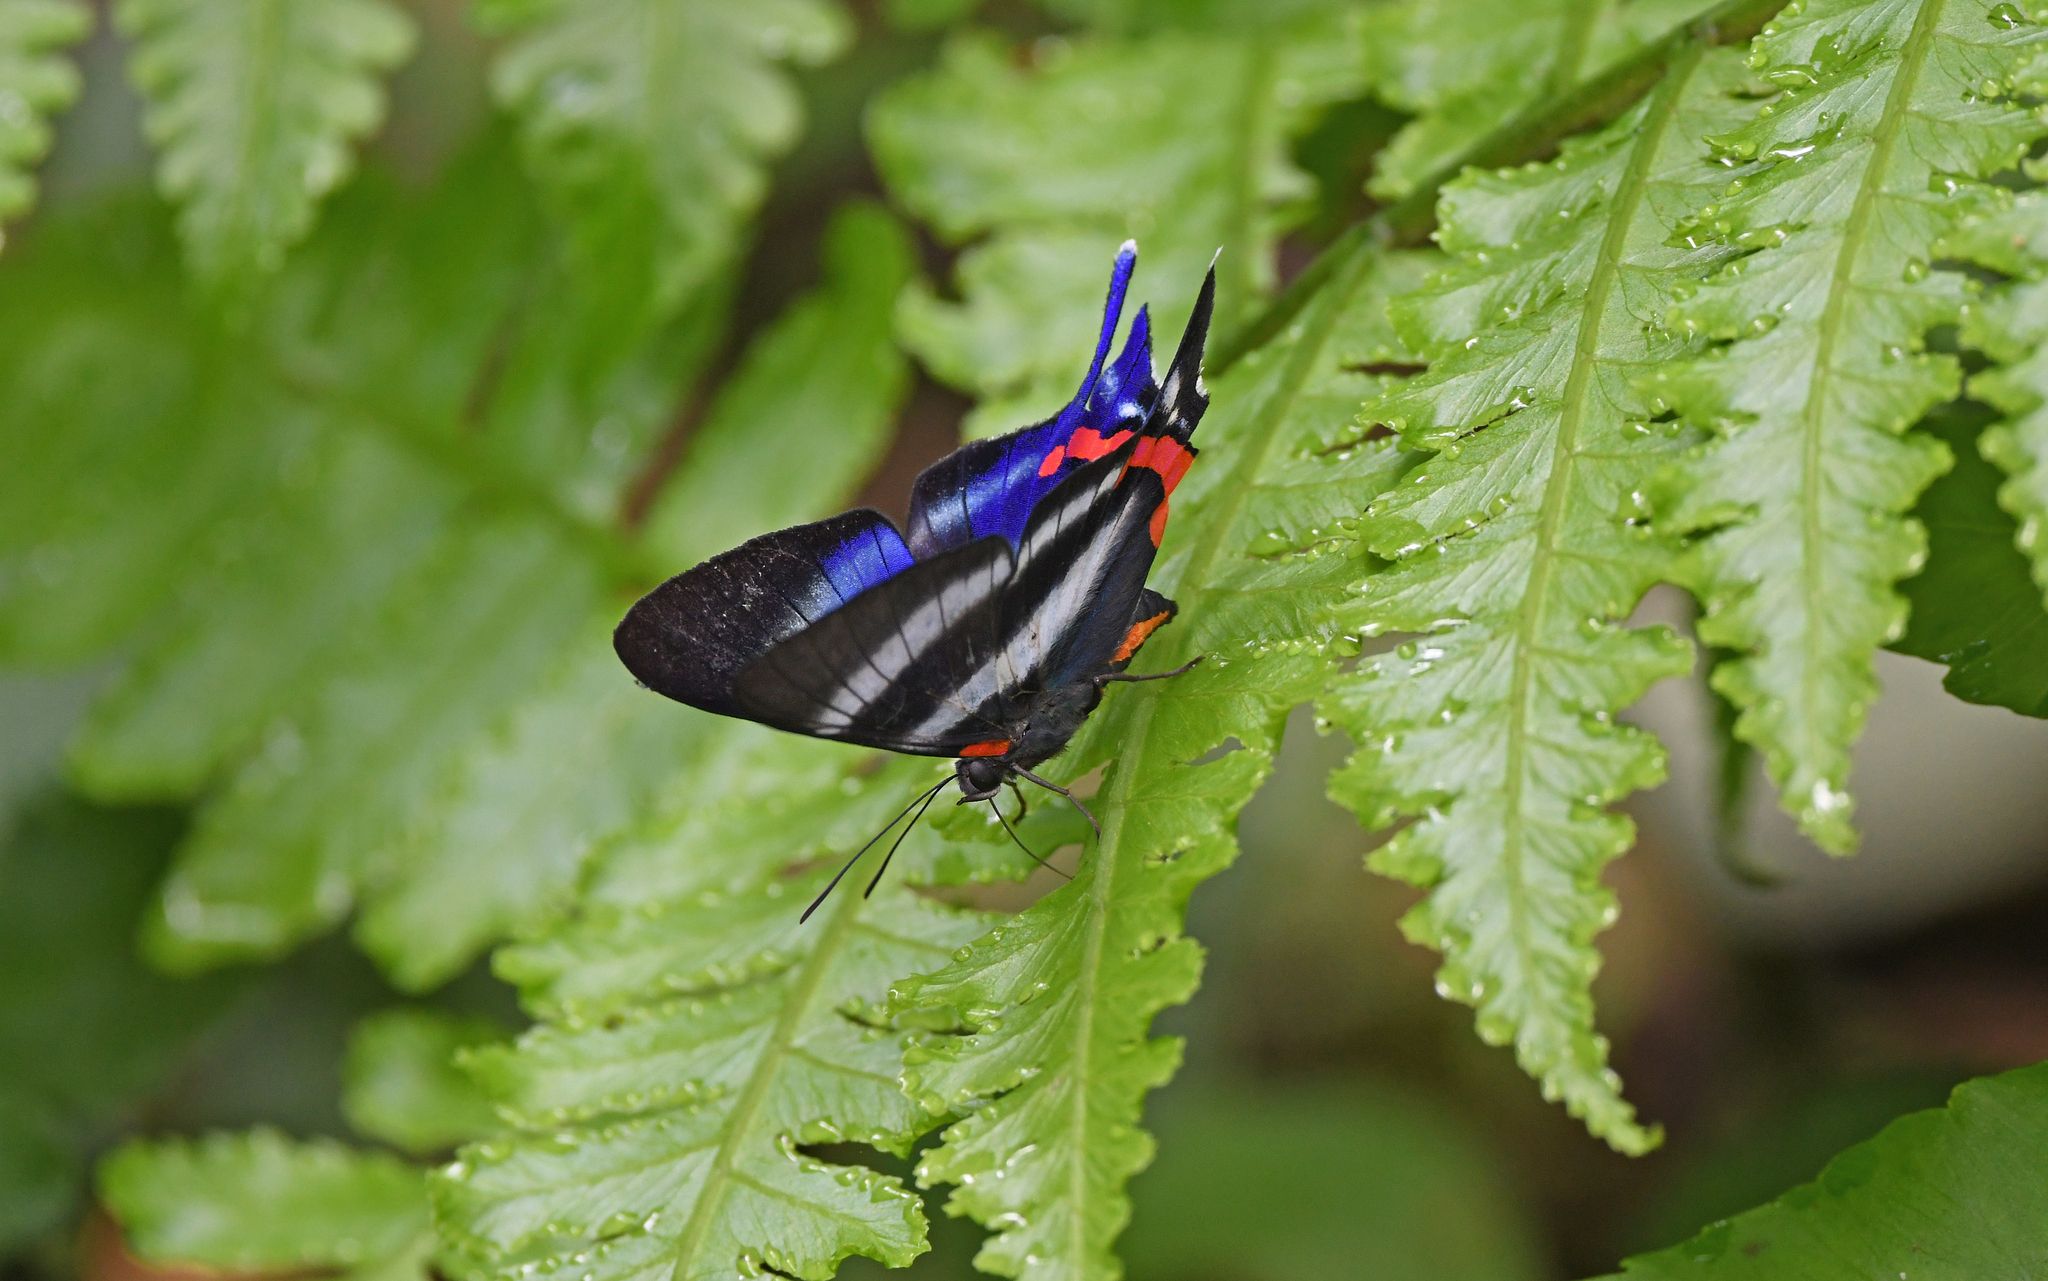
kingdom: Animalia
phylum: Arthropoda
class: Insecta
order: Lepidoptera
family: Riodinidae
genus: Rhetus
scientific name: Rhetus dysonii
